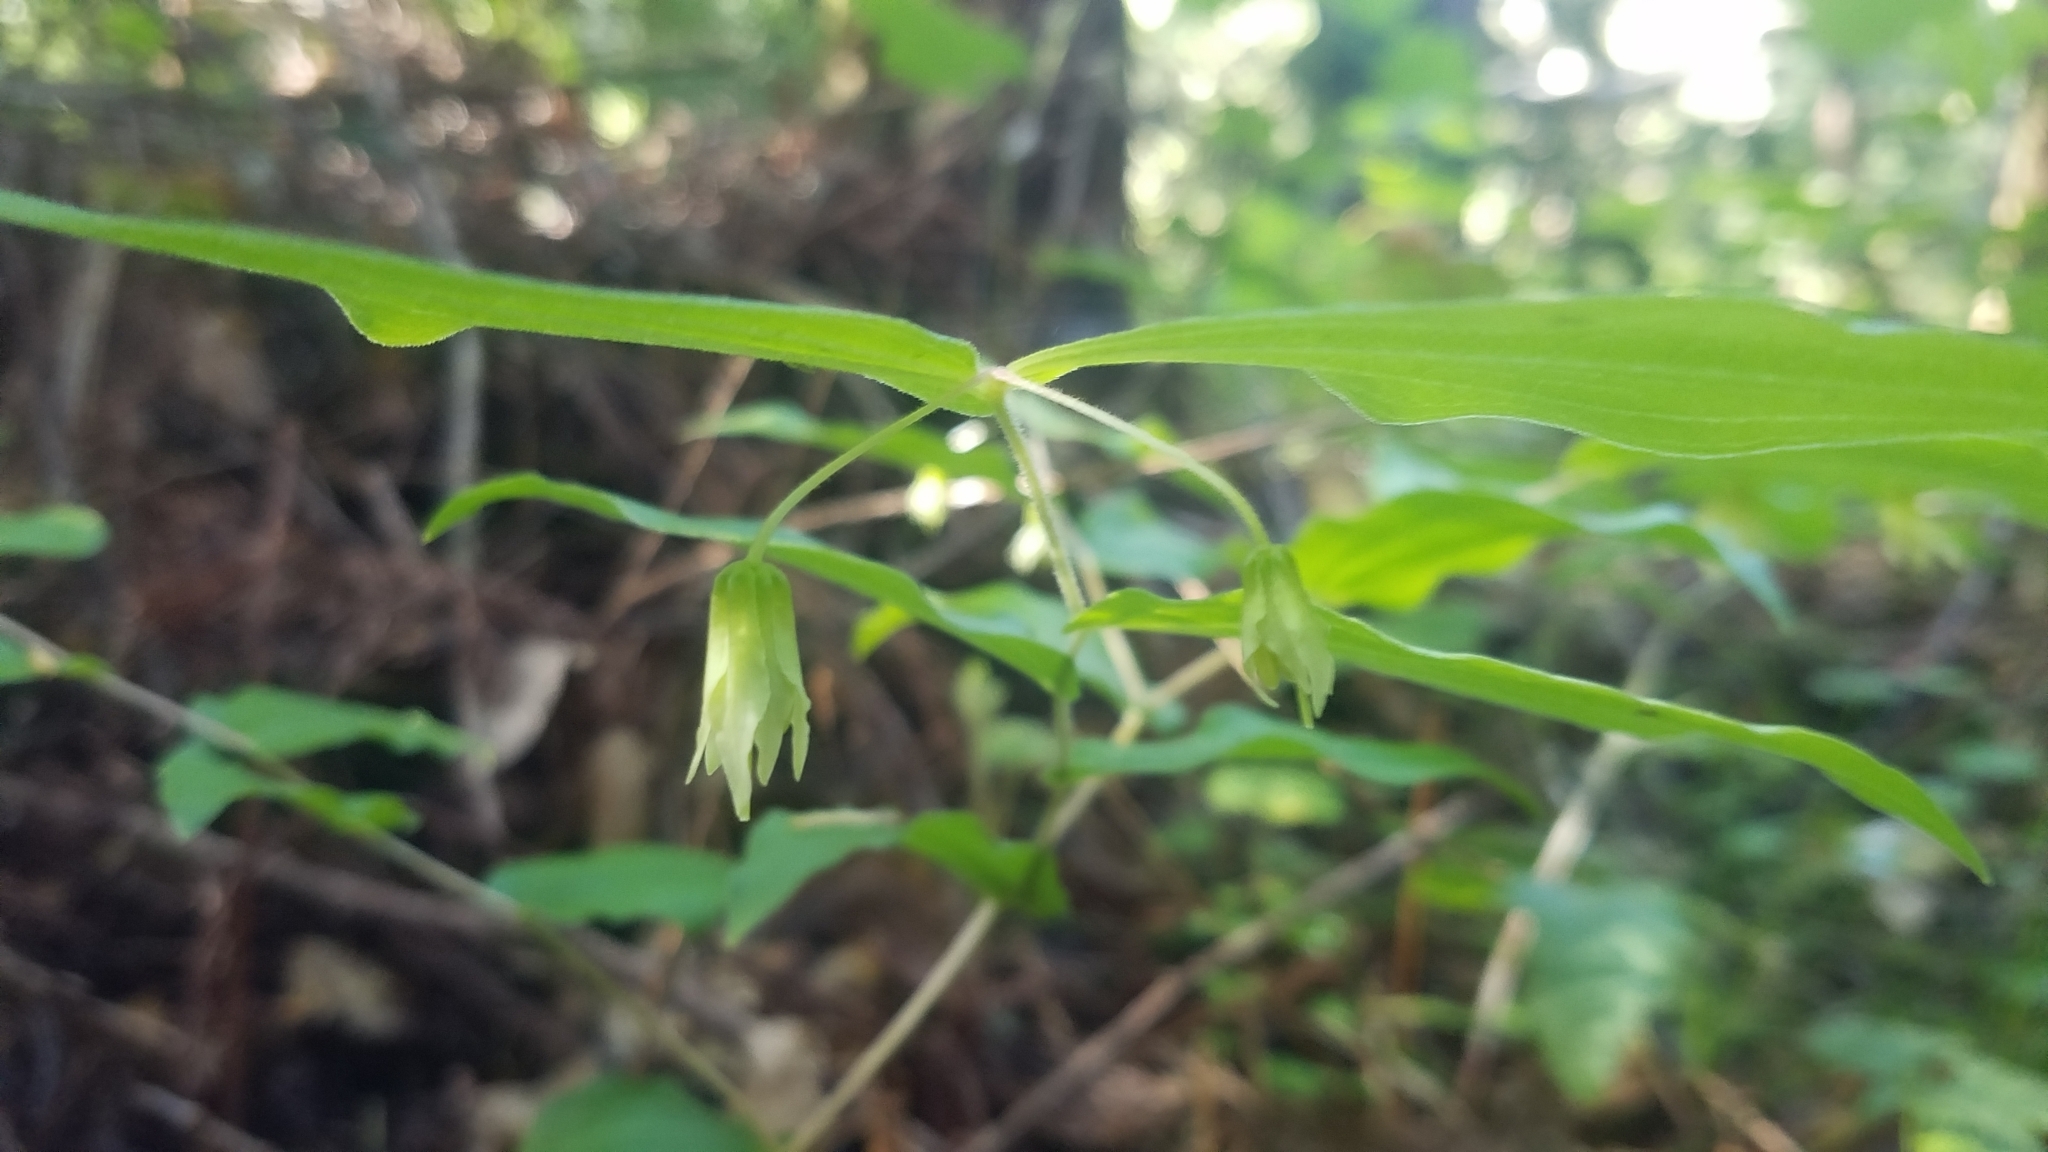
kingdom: Plantae
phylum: Tracheophyta
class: Liliopsida
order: Liliales
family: Liliaceae
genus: Prosartes
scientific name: Prosartes hookeri
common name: Fairy-bells
